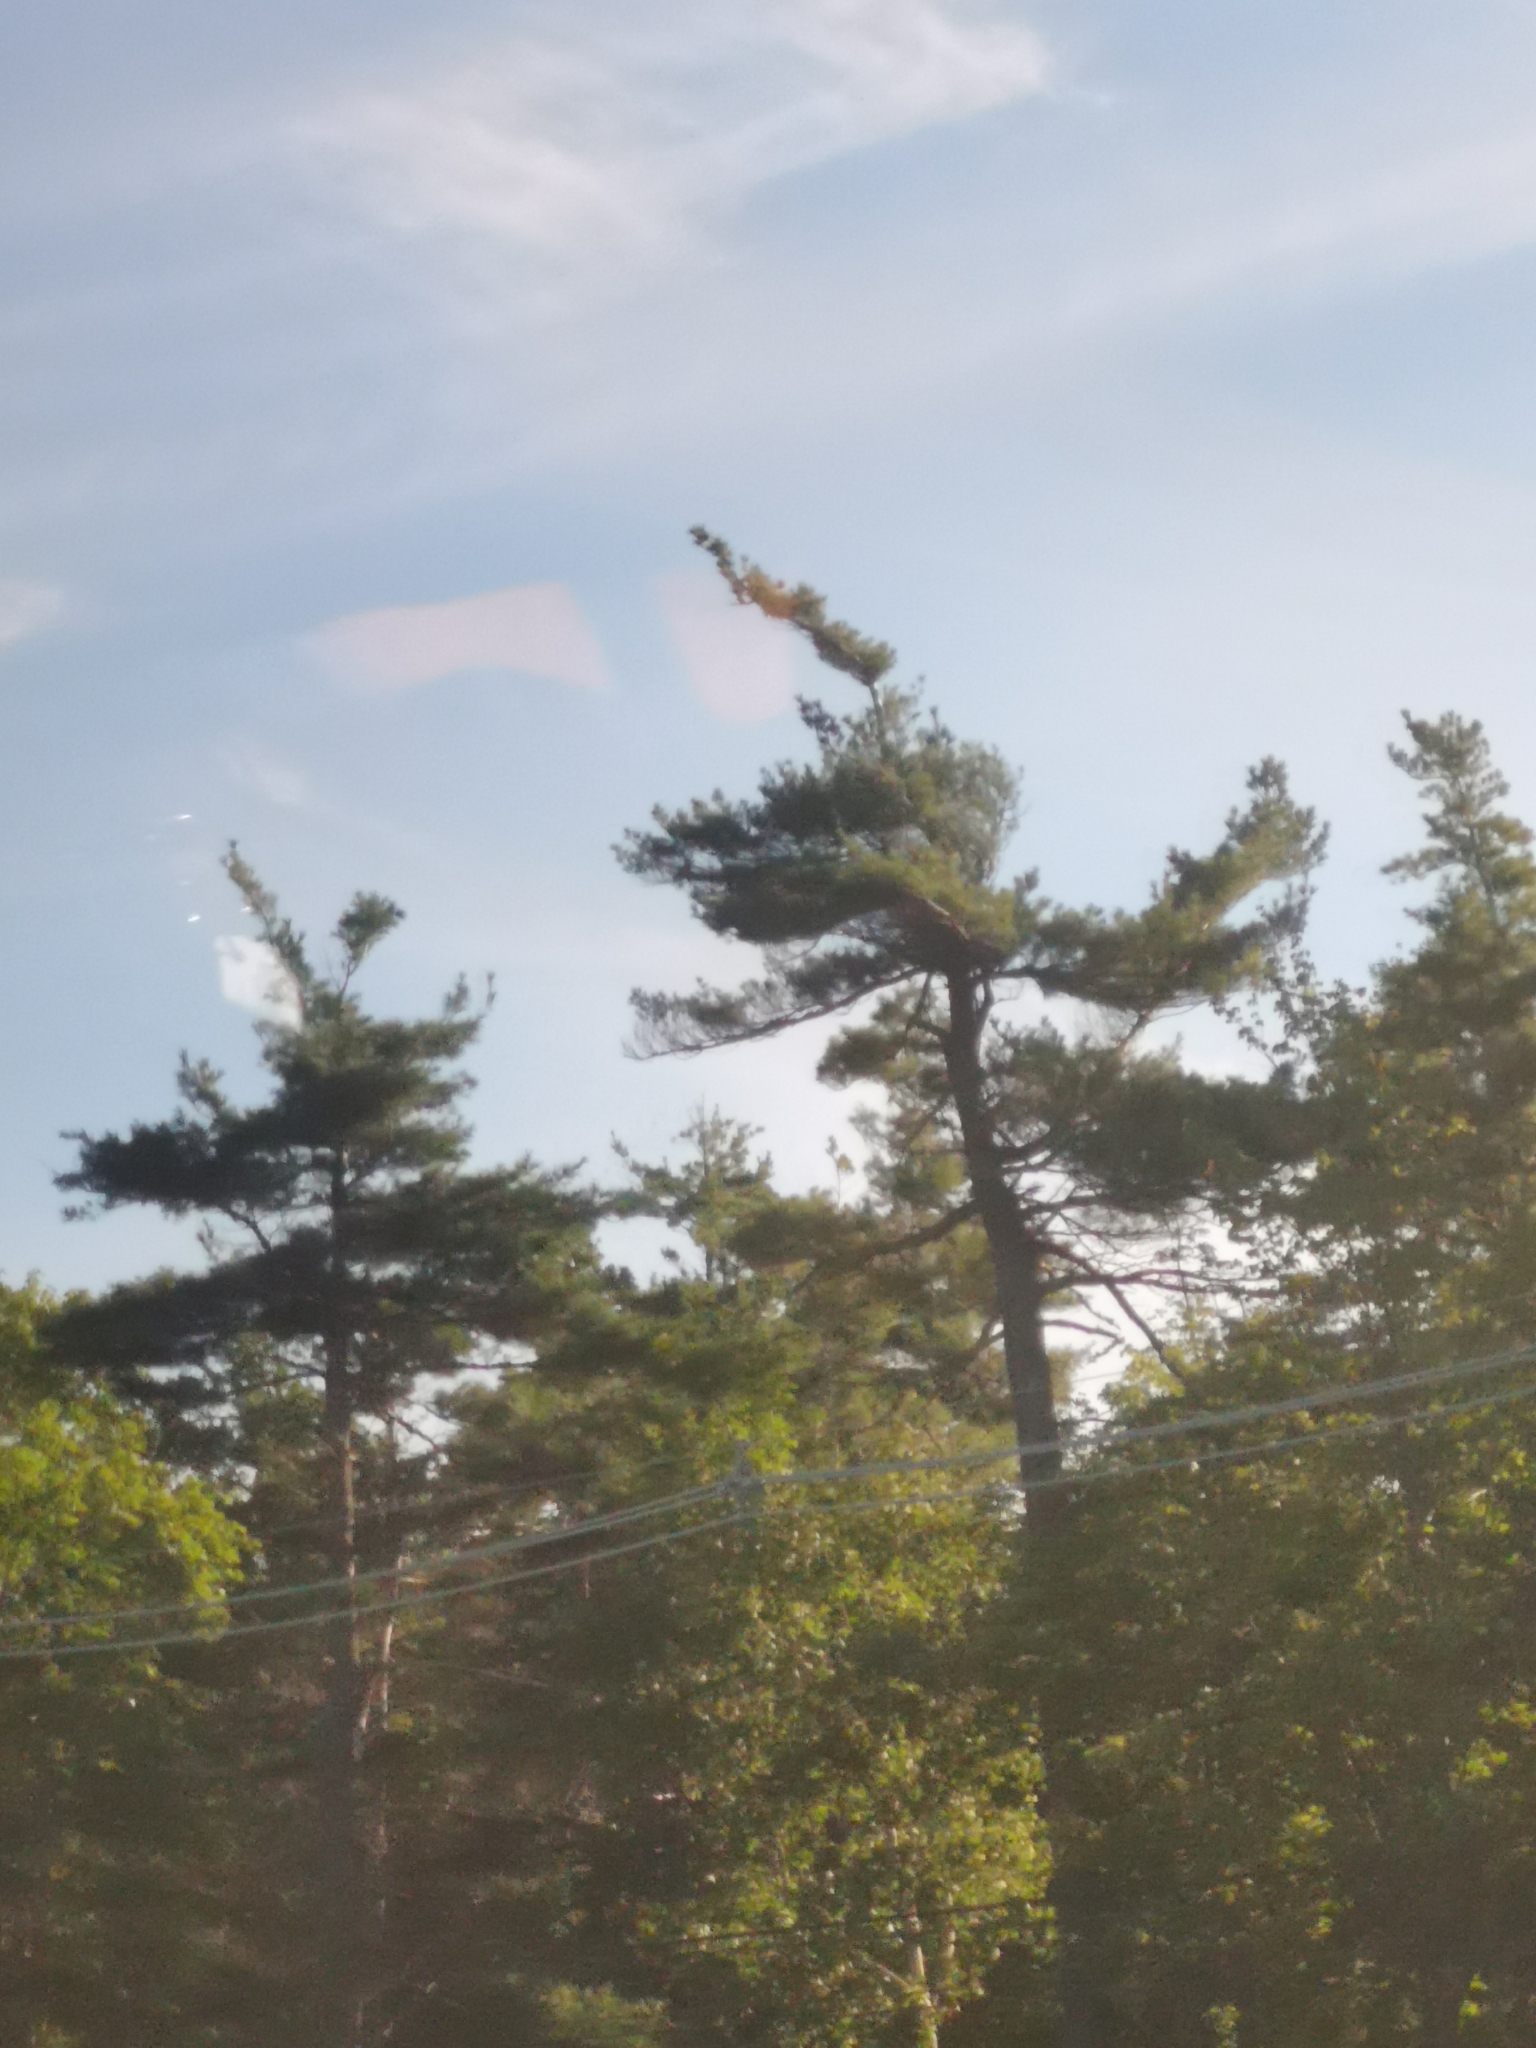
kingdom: Plantae
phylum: Tracheophyta
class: Pinopsida
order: Pinales
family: Pinaceae
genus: Pinus
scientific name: Pinus strobus
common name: Weymouth pine
